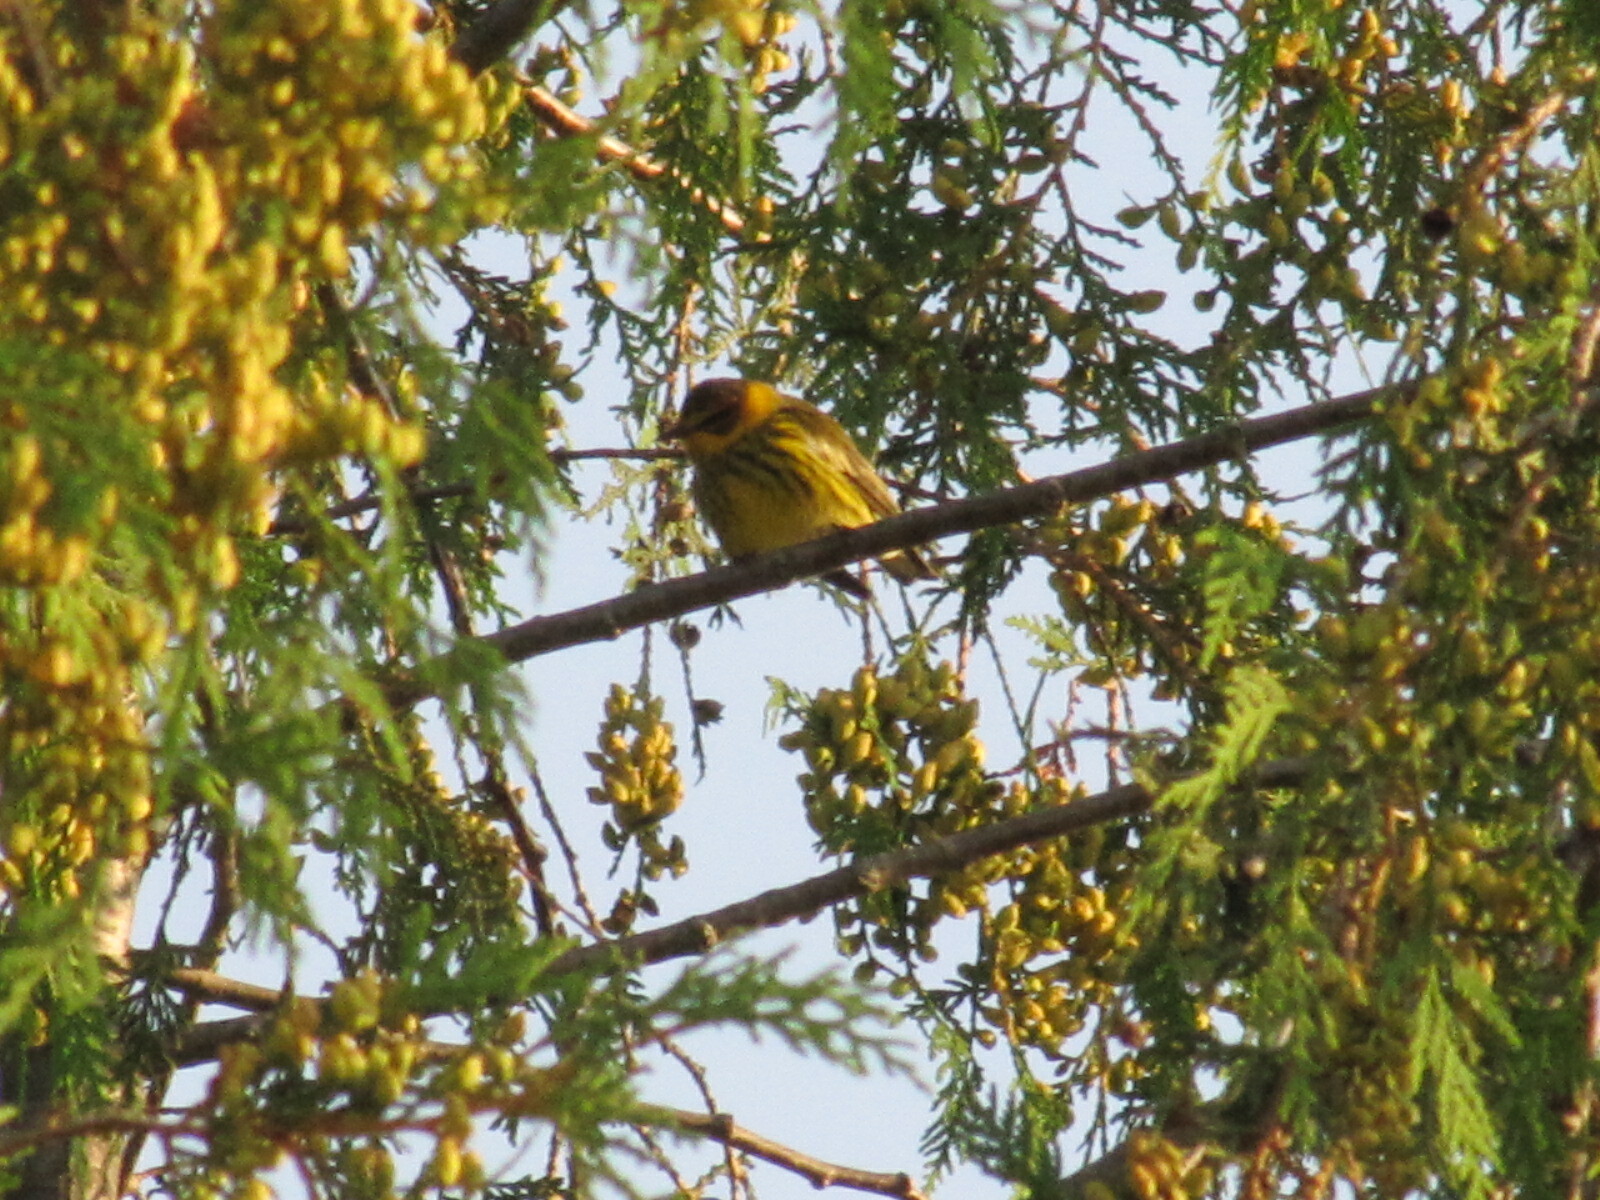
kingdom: Animalia
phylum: Chordata
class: Aves
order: Passeriformes
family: Parulidae
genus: Setophaga
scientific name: Setophaga tigrina
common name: Cape may warbler
